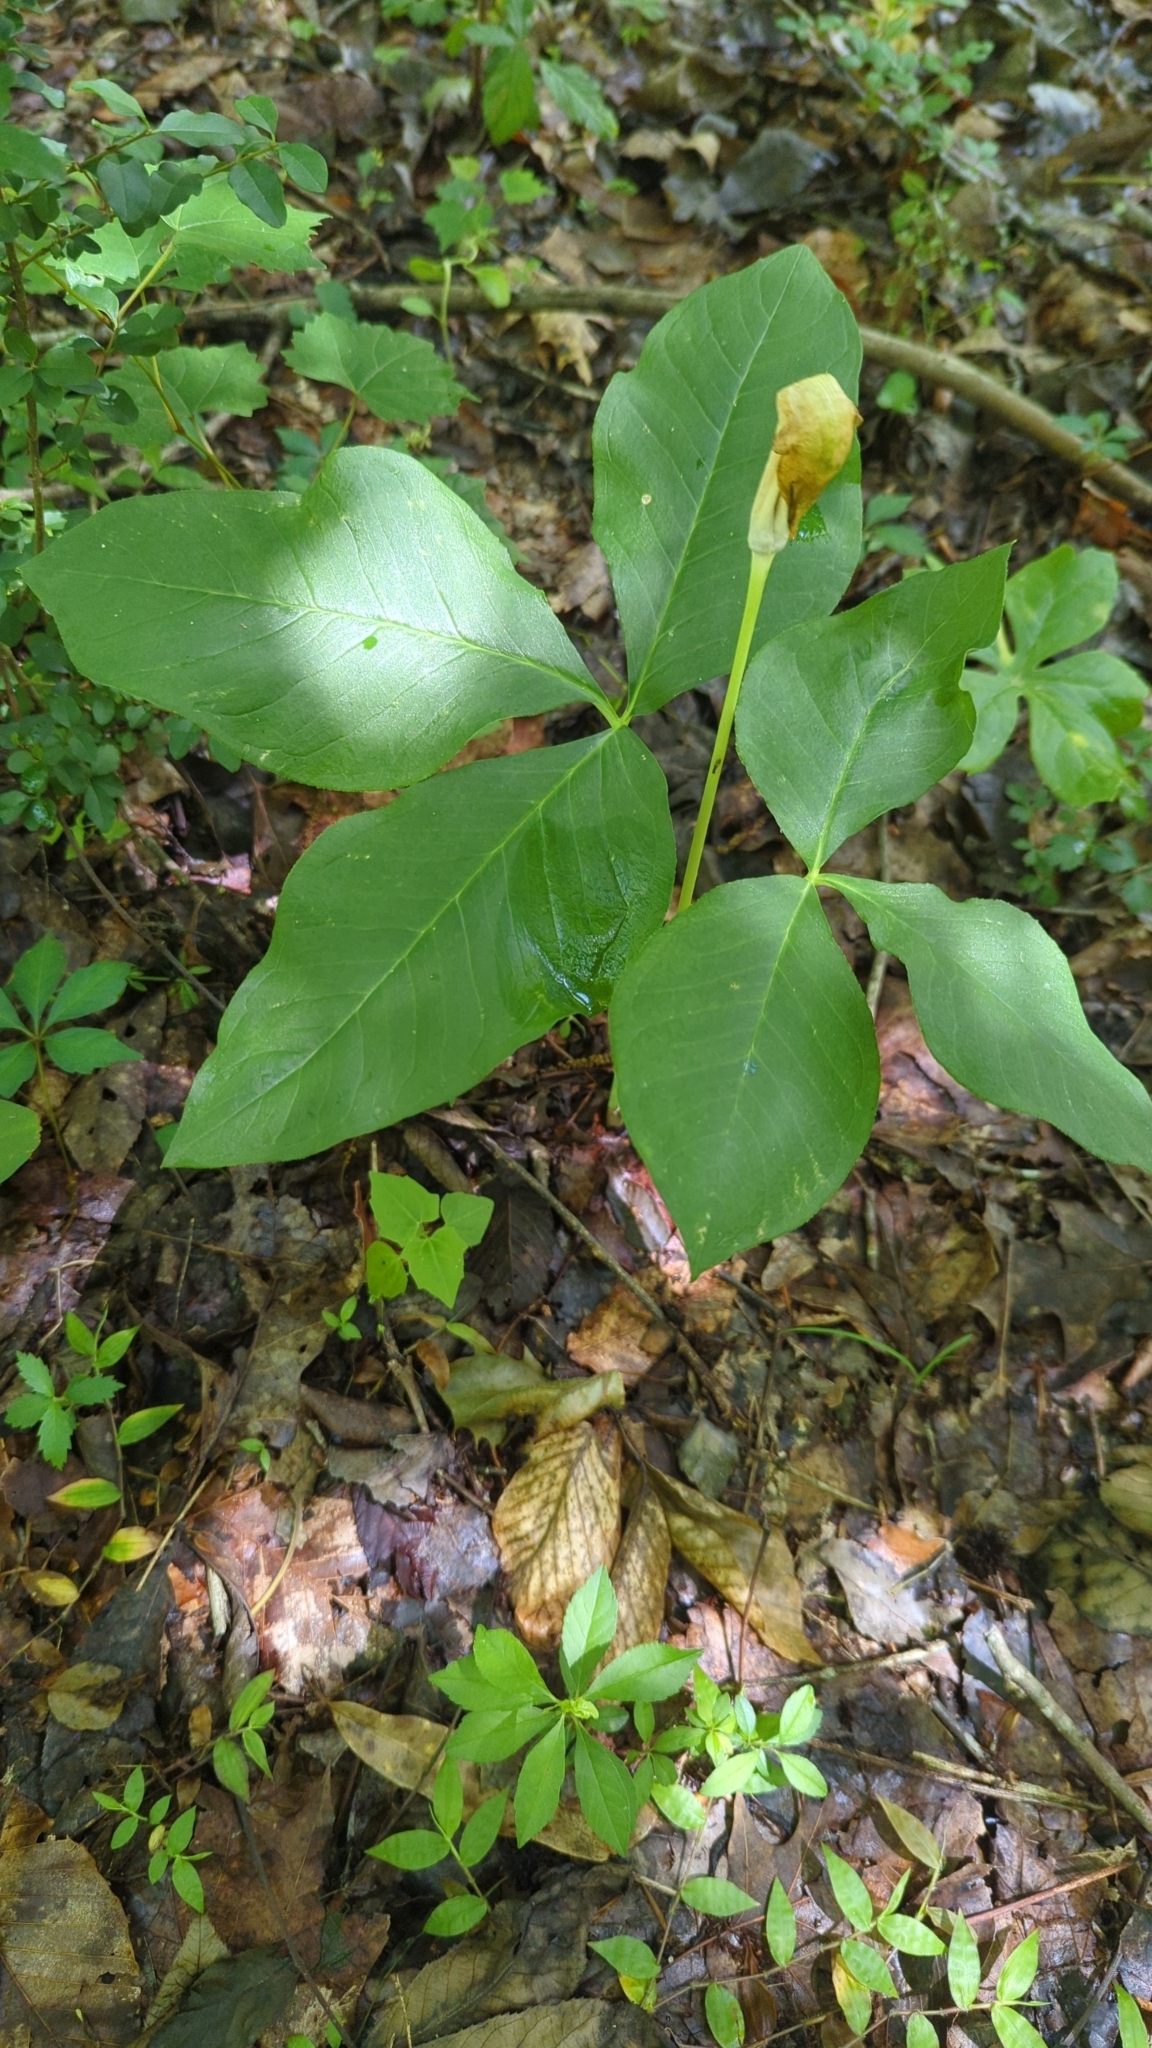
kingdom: Plantae
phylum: Tracheophyta
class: Liliopsida
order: Alismatales
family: Araceae
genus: Arisaema
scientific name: Arisaema triphyllum
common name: Jack-in-the-pulpit
